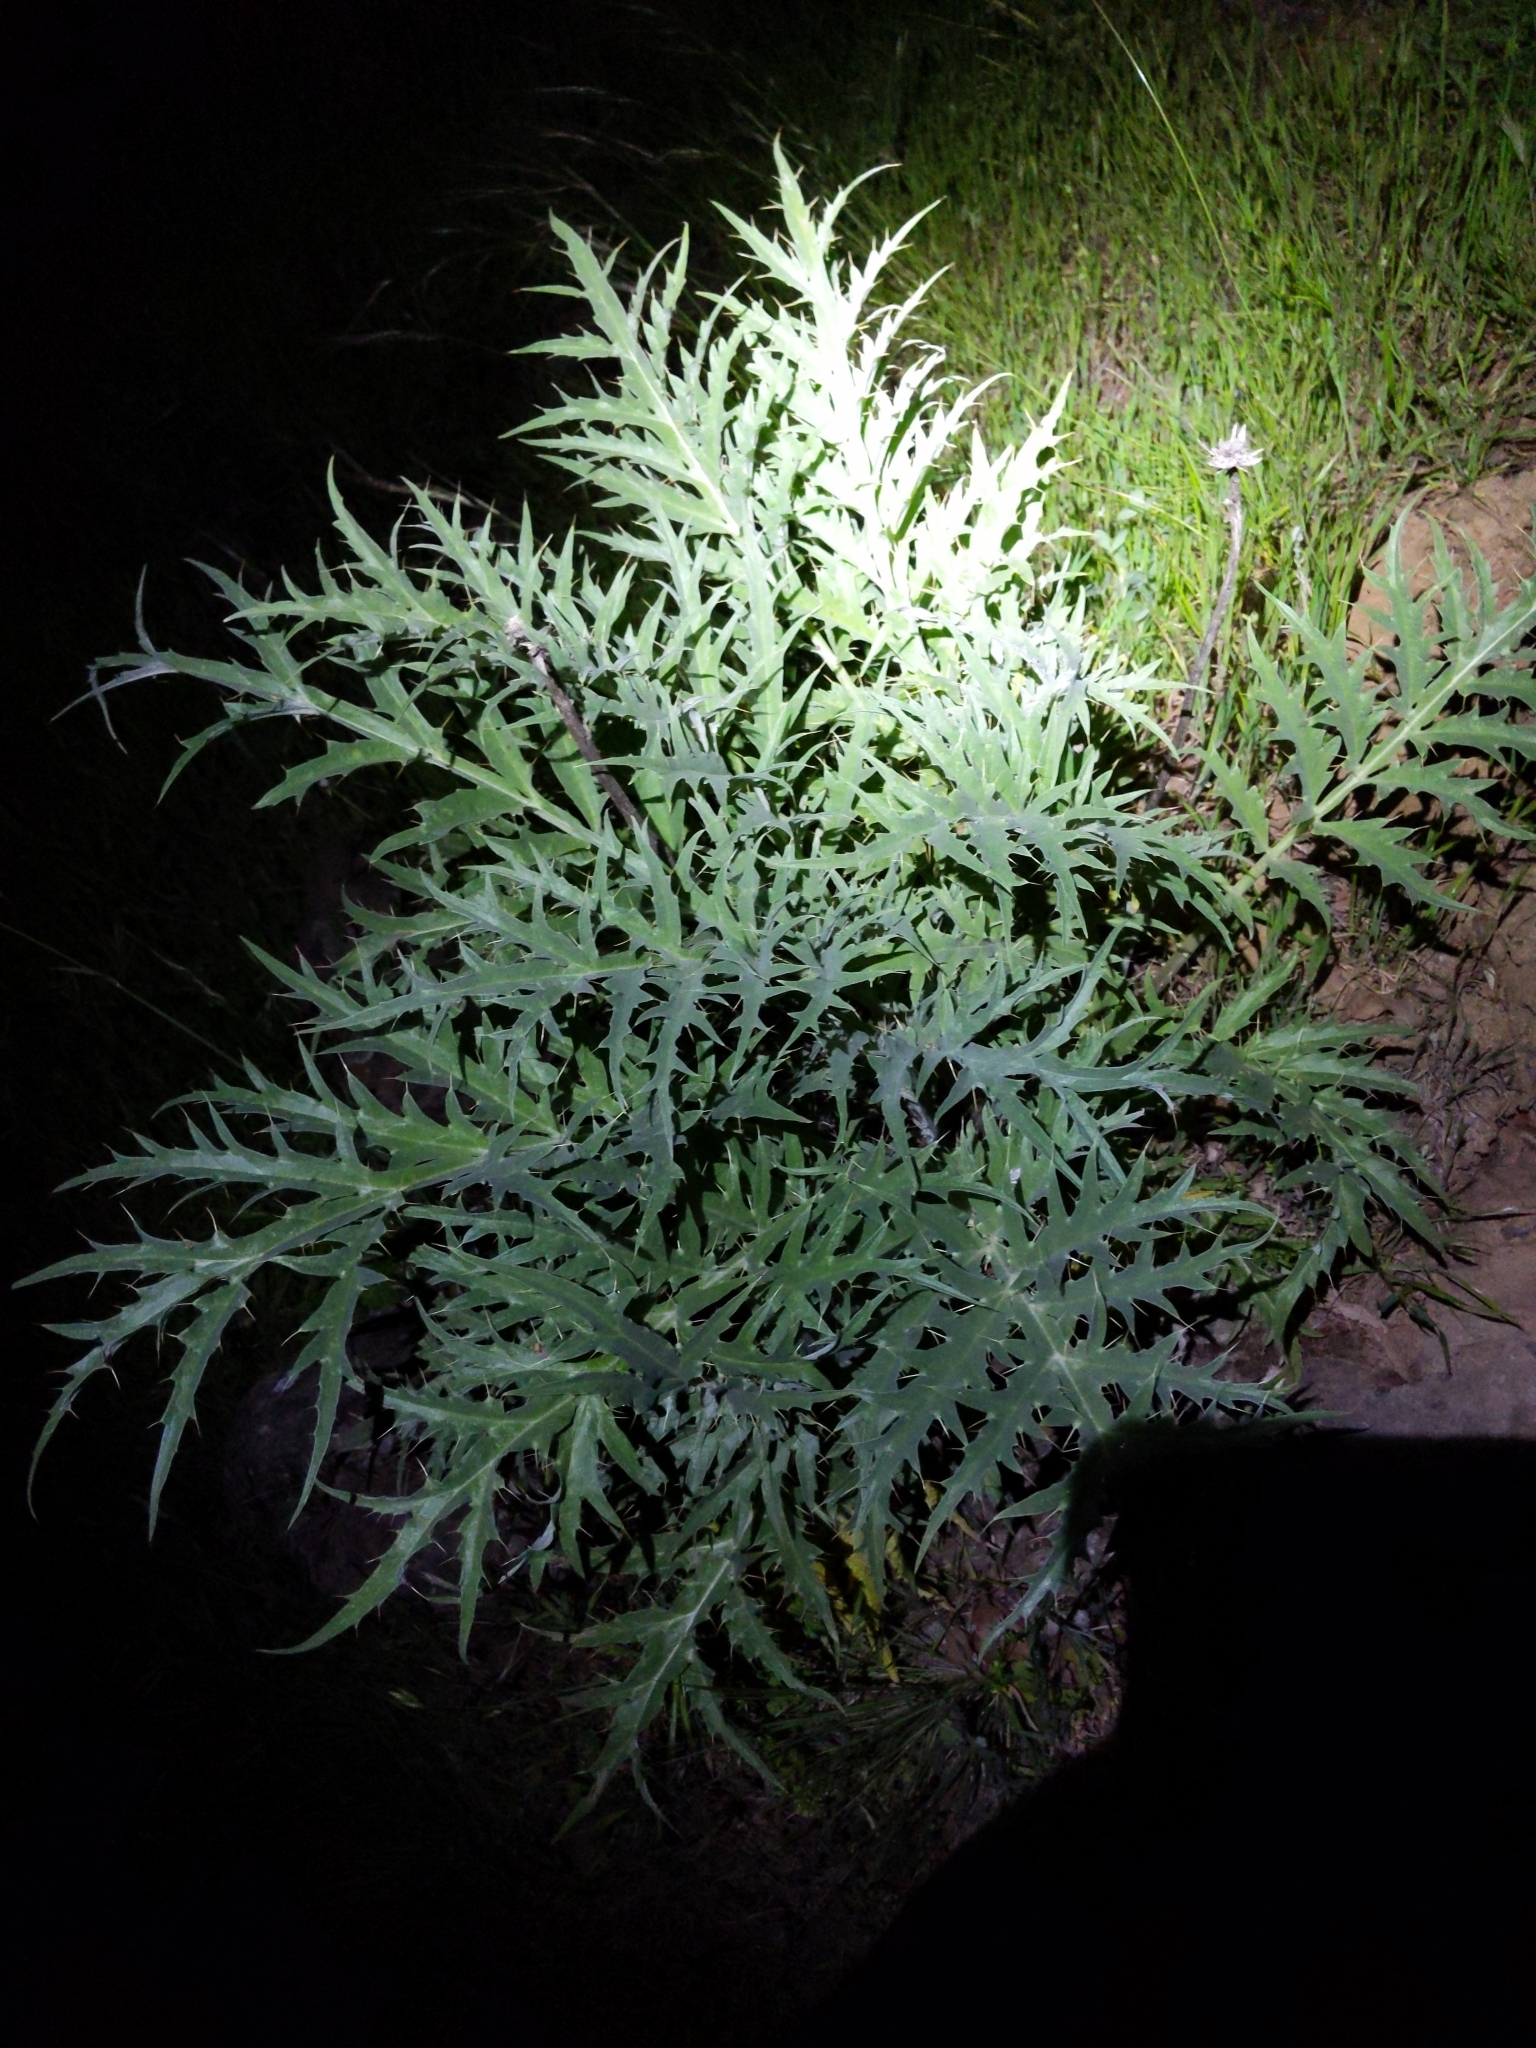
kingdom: Plantae
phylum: Tracheophyta
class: Magnoliopsida
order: Asterales
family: Asteraceae
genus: Cynara
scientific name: Cynara cardunculus
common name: Globe artichoke
